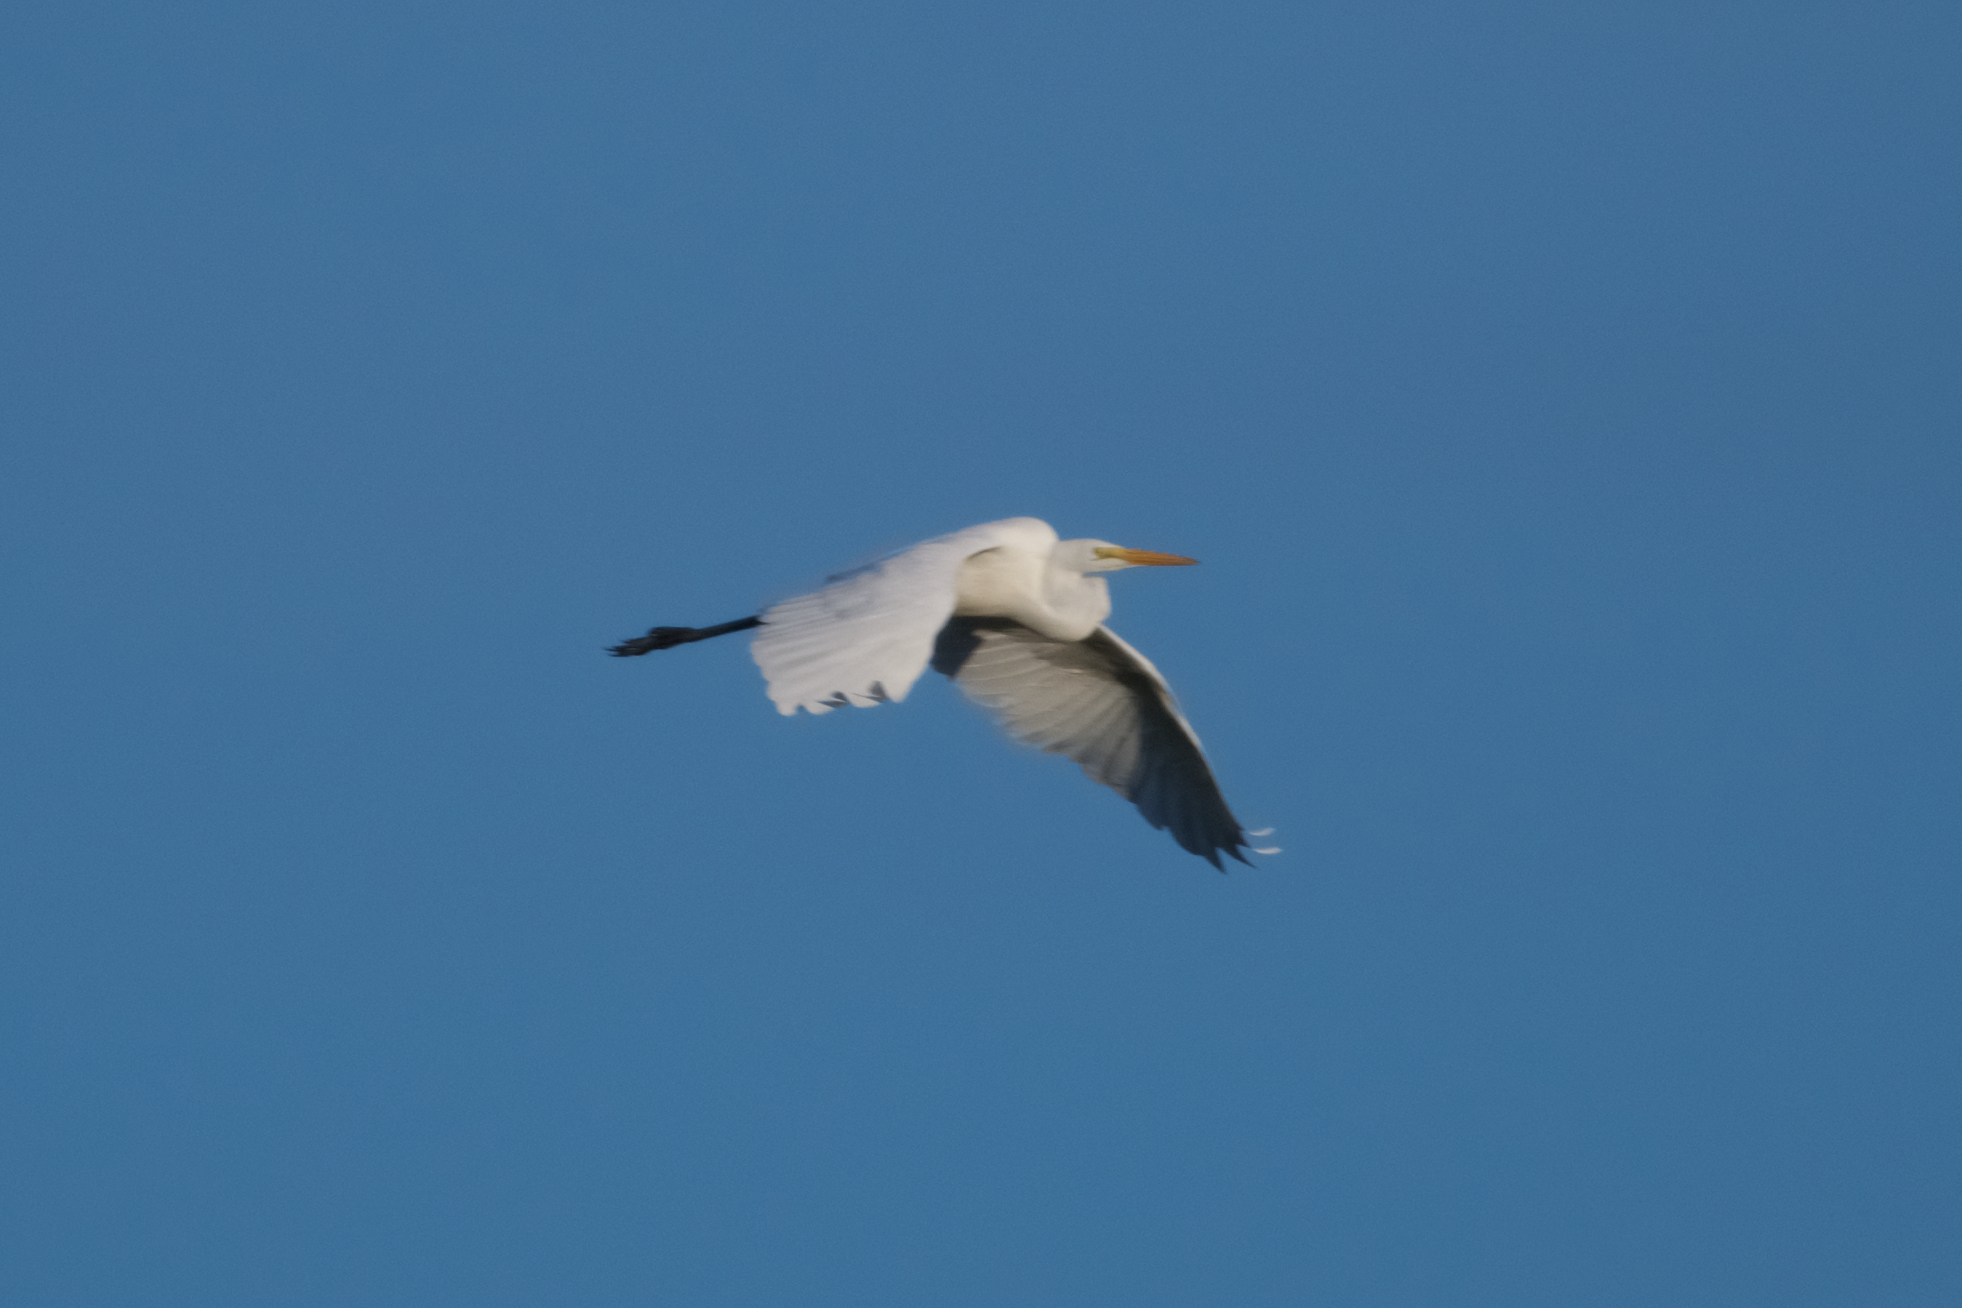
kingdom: Animalia
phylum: Chordata
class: Aves
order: Pelecaniformes
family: Ardeidae
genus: Ardea
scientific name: Ardea alba
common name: Great egret
